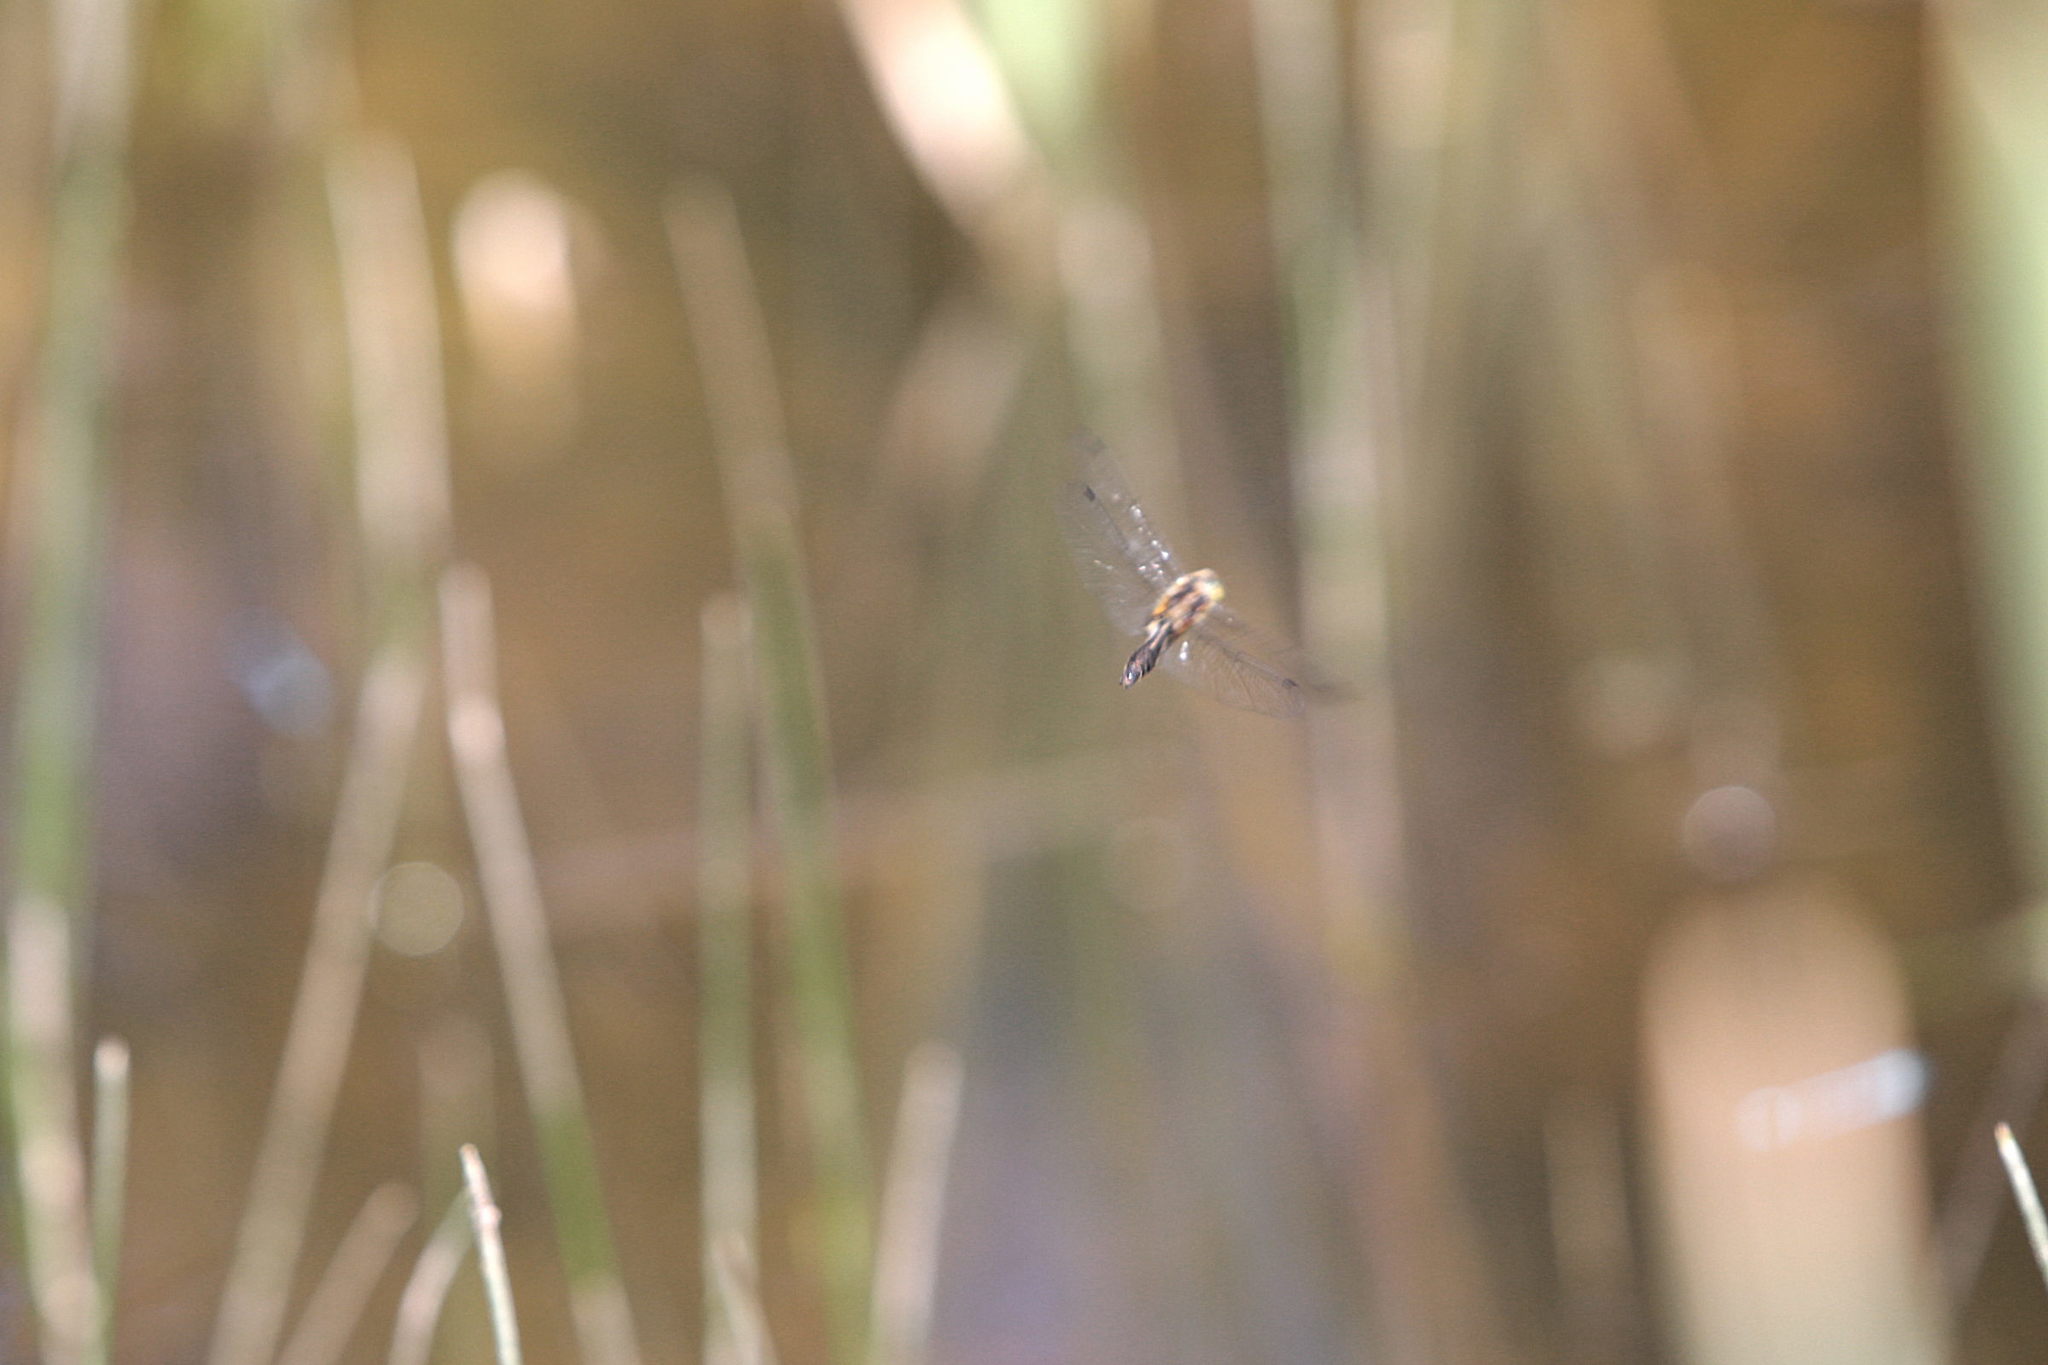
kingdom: Animalia
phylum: Arthropoda
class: Insecta
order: Odonata
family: Corduliidae
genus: Cordulia
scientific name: Cordulia aenea
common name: Downy emerald
